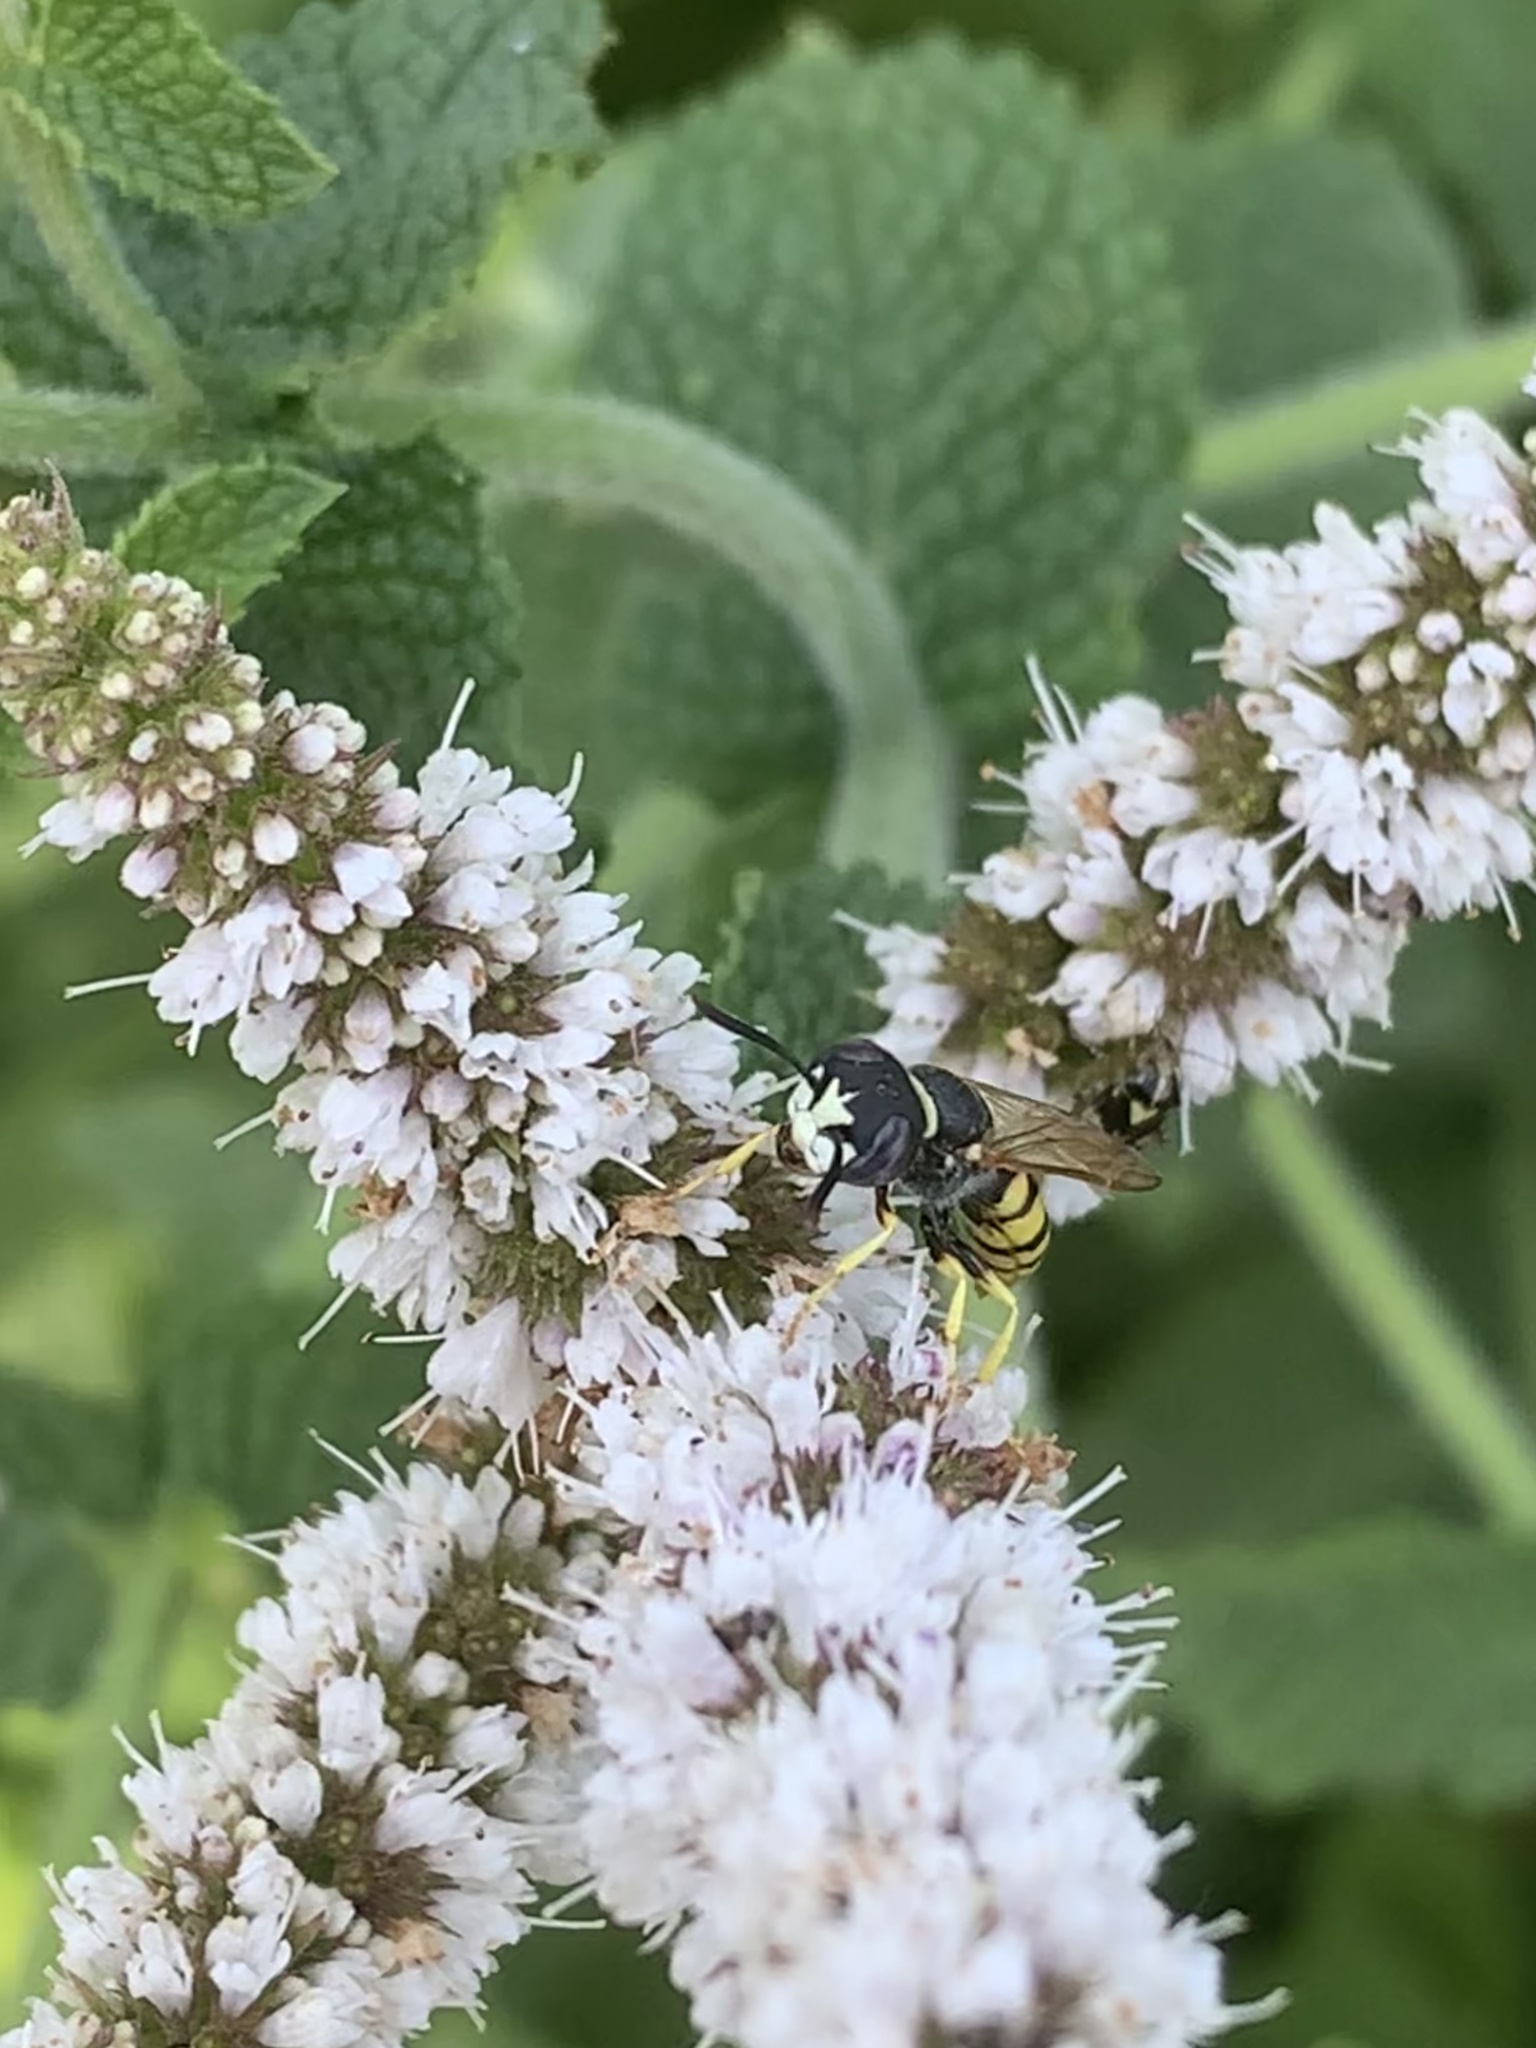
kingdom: Animalia
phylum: Arthropoda
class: Insecta
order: Hymenoptera
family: Crabronidae
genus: Philanthus
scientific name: Philanthus triangulum
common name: Bee wolf
